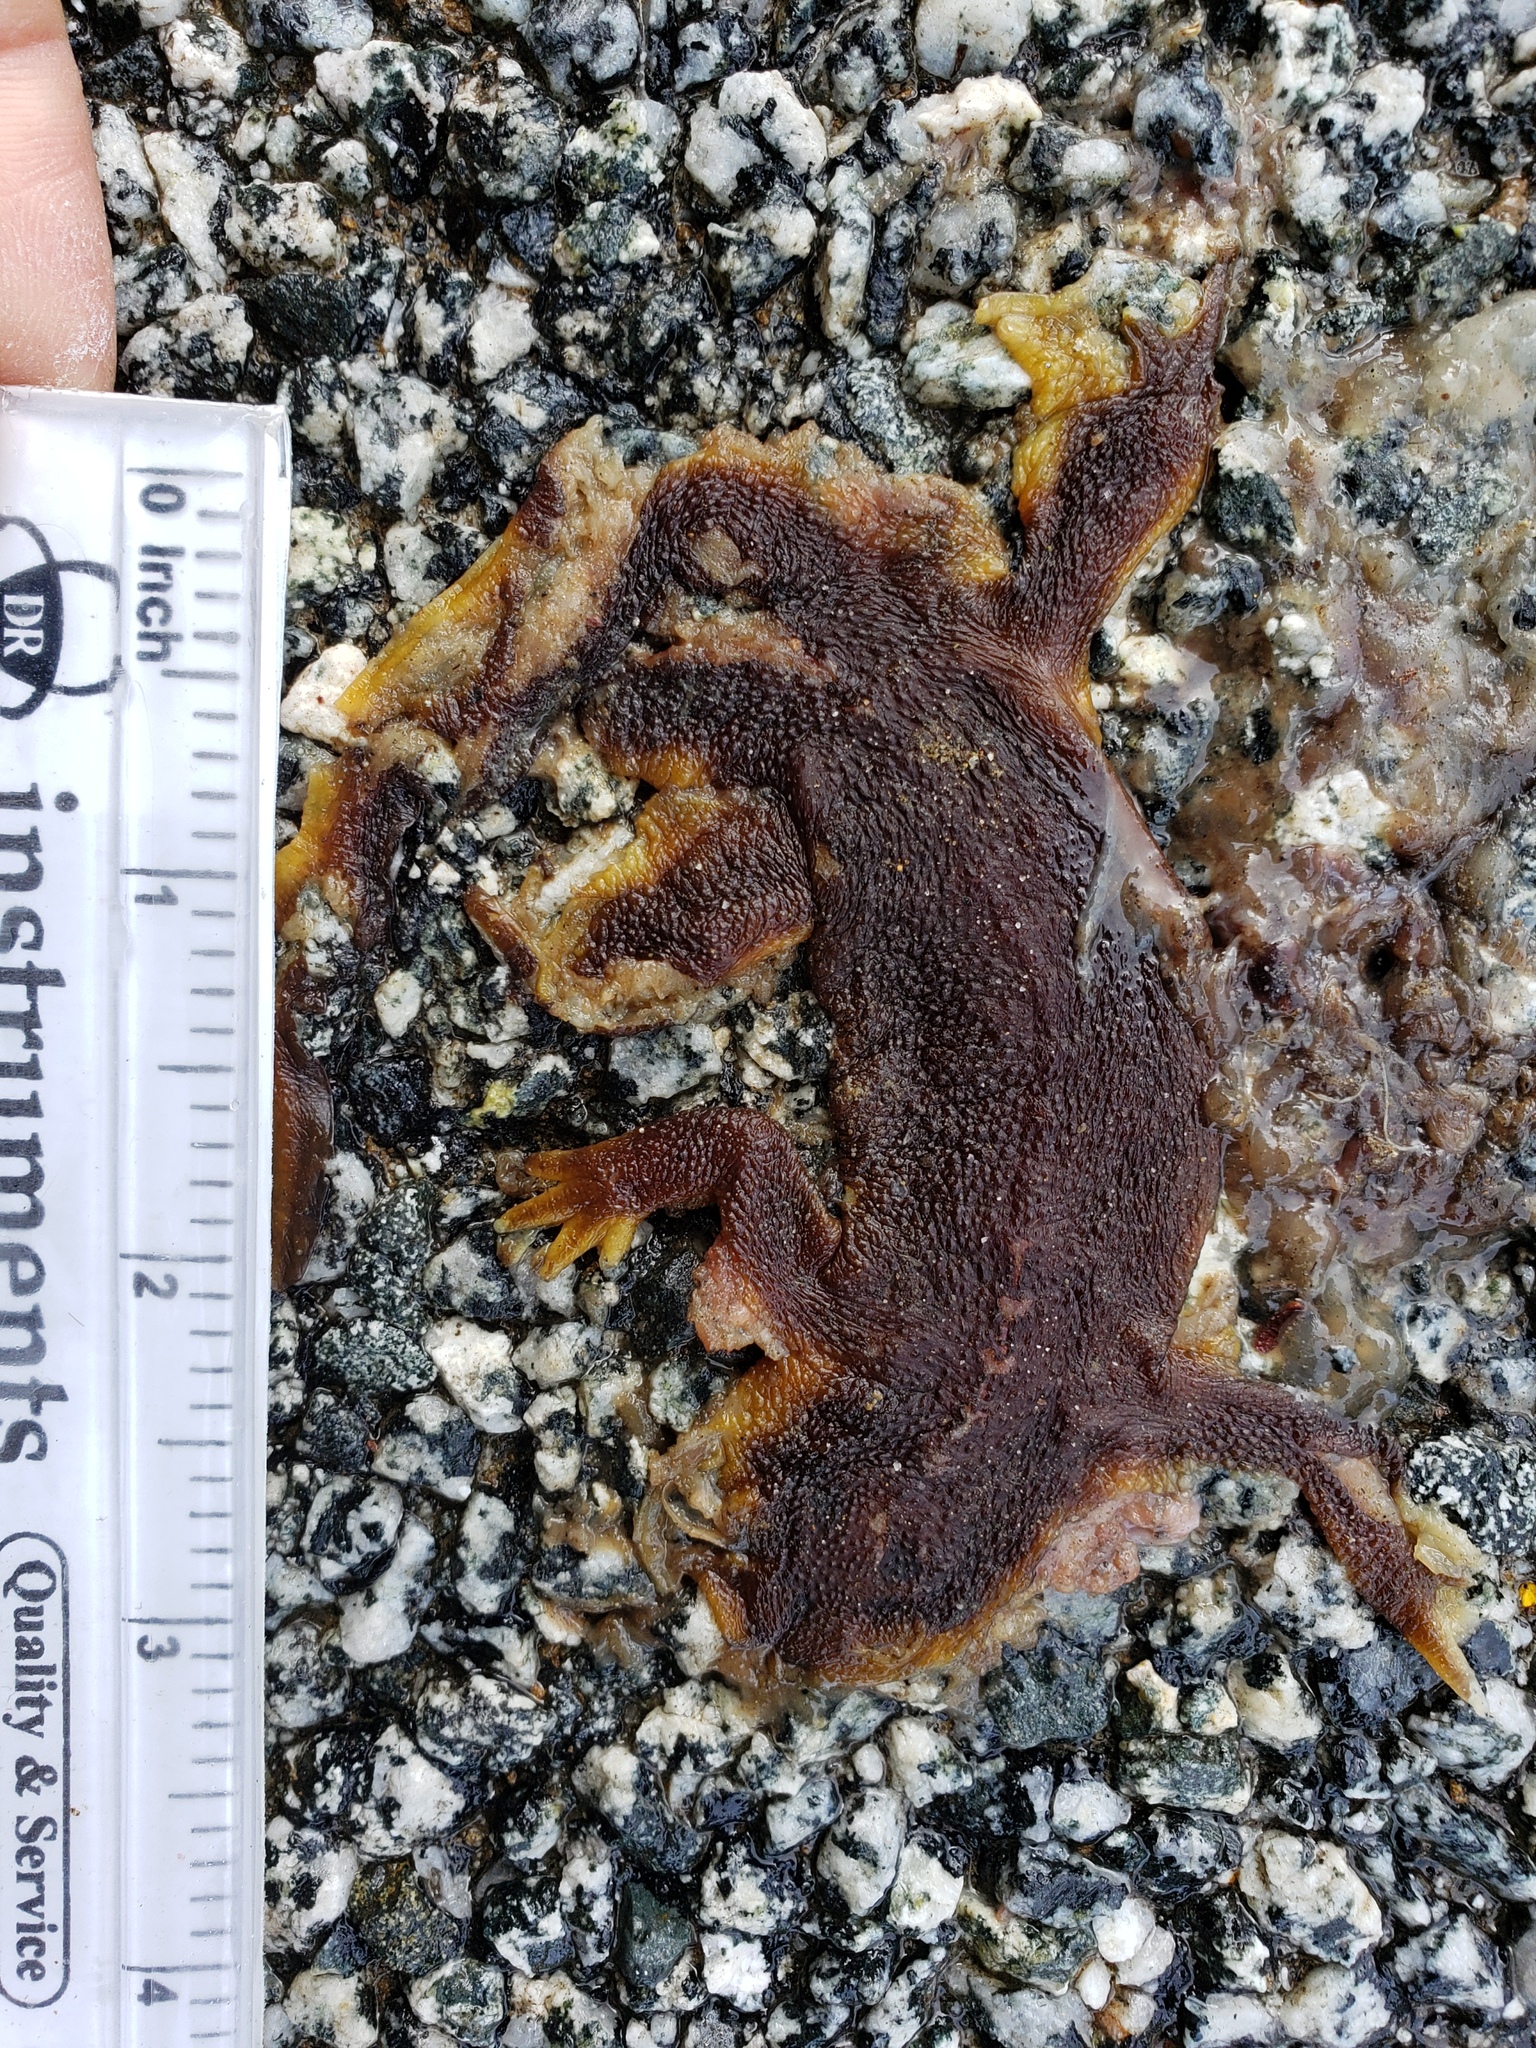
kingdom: Animalia
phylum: Chordata
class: Amphibia
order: Caudata
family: Salamandridae
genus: Taricha
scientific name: Taricha
